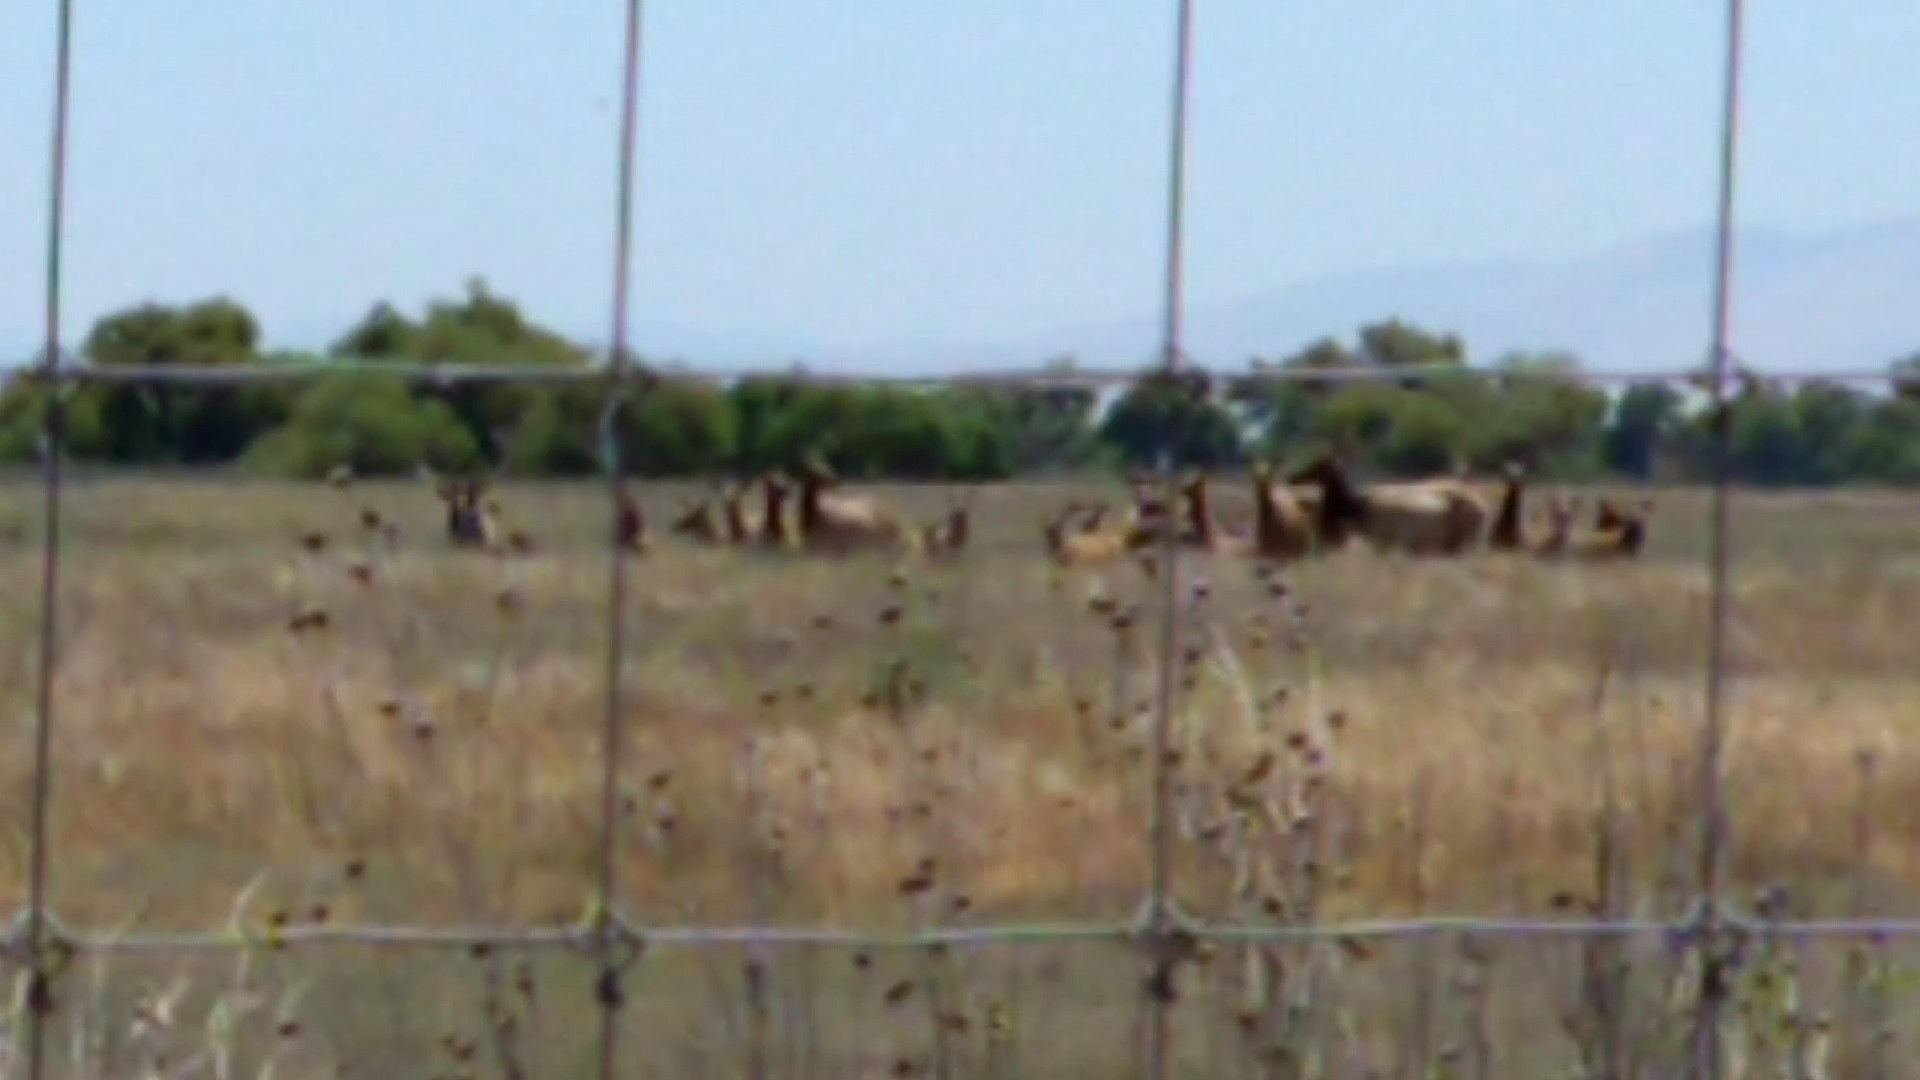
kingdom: Animalia
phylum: Chordata
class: Mammalia
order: Artiodactyla
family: Cervidae
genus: Cervus
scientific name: Cervus elaphus
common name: Red deer
